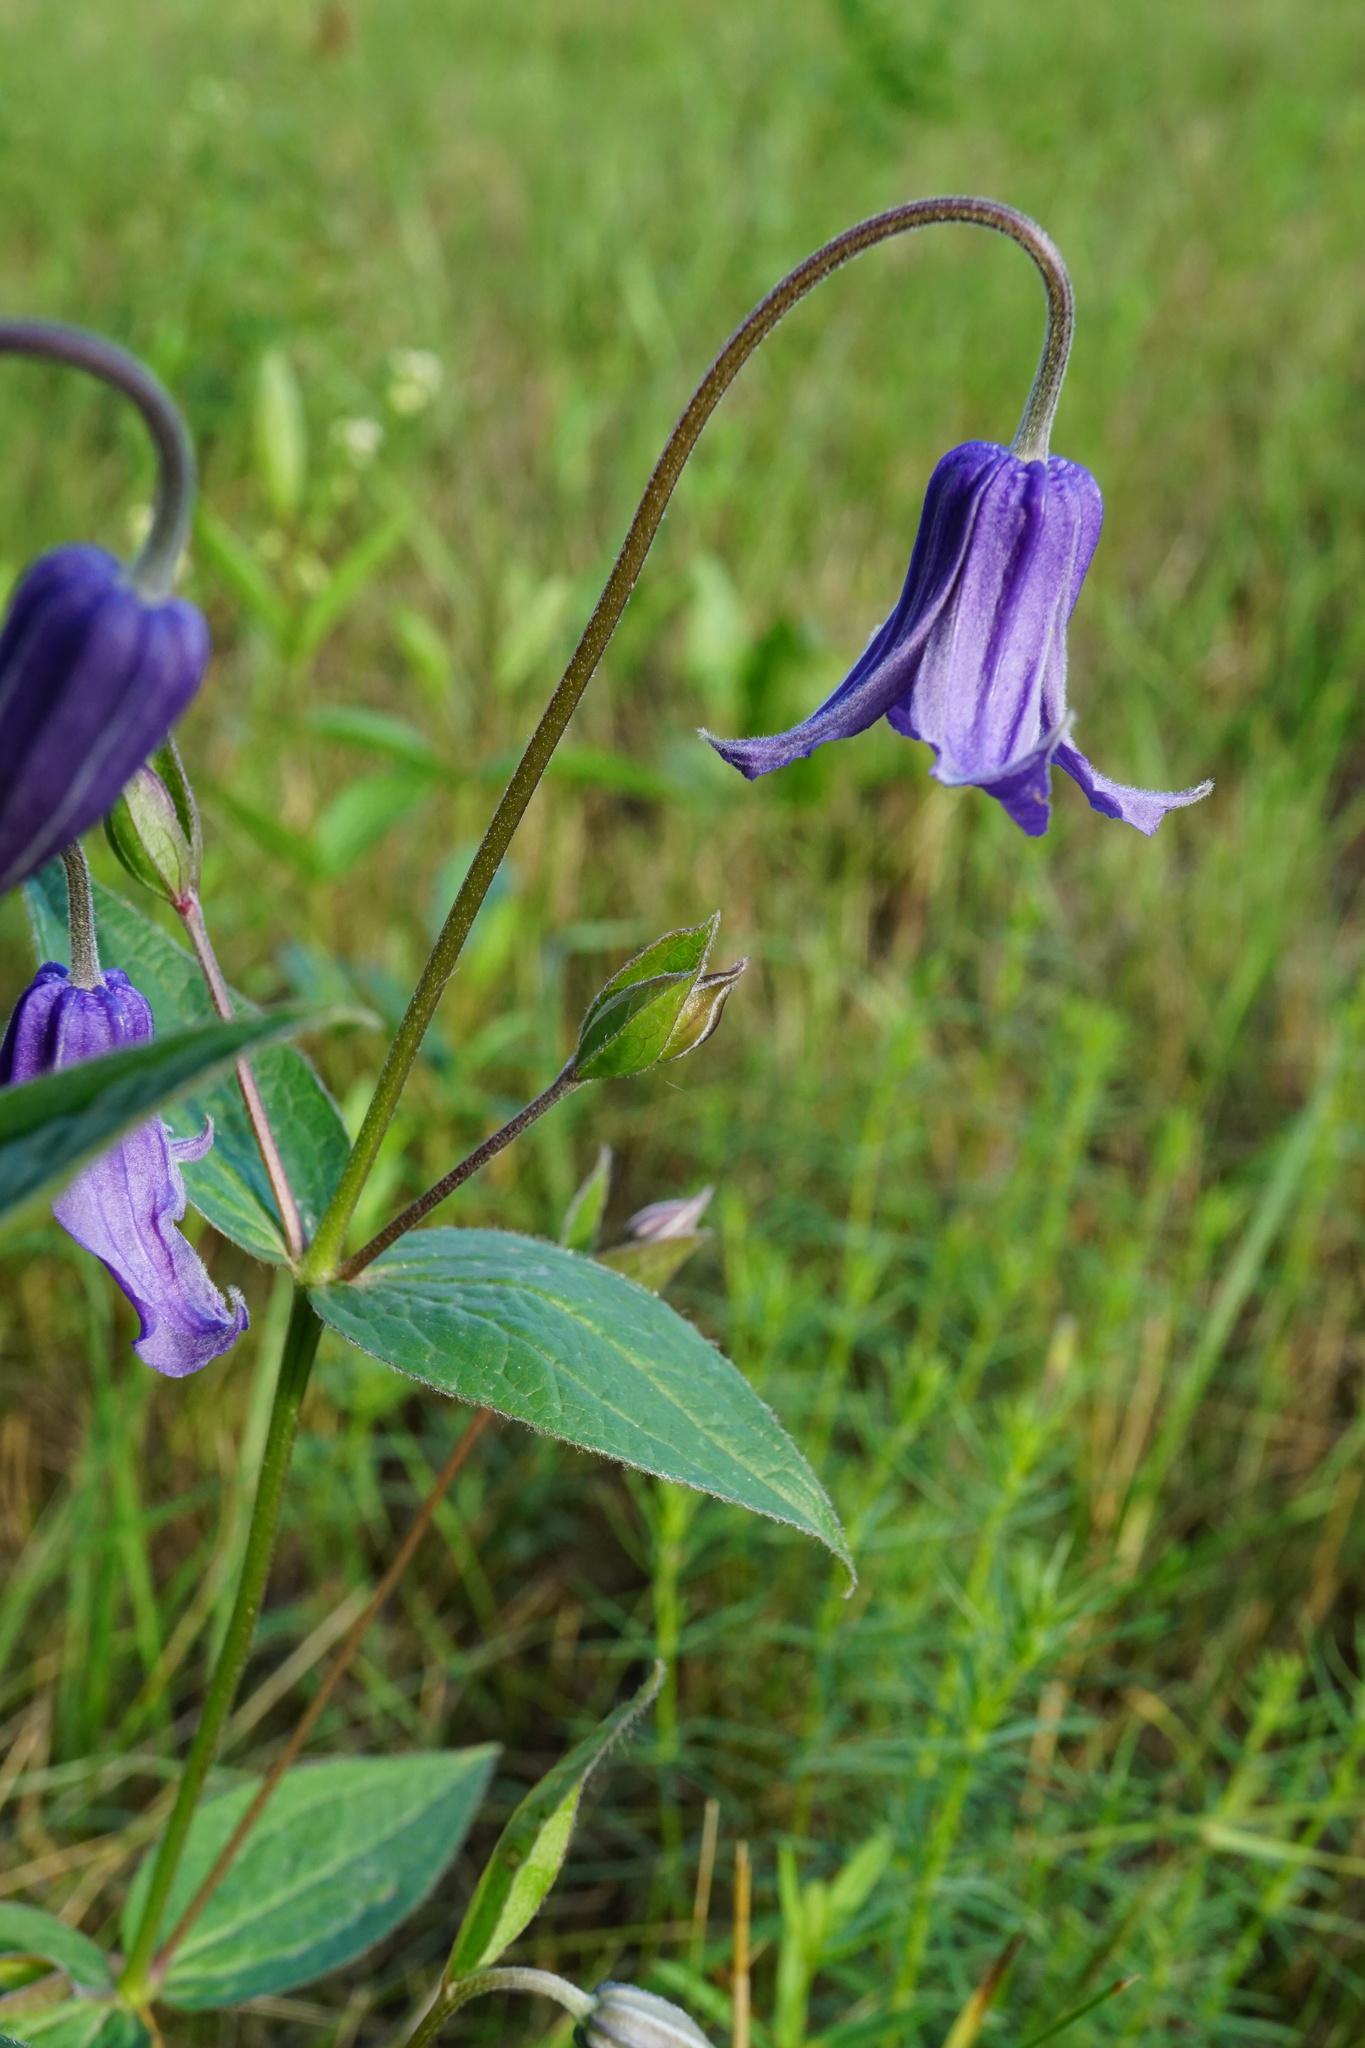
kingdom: Plantae
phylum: Tracheophyta
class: Magnoliopsida
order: Ranunculales
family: Ranunculaceae
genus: Clematis
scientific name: Clematis integrifolia
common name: Solitary clematis
